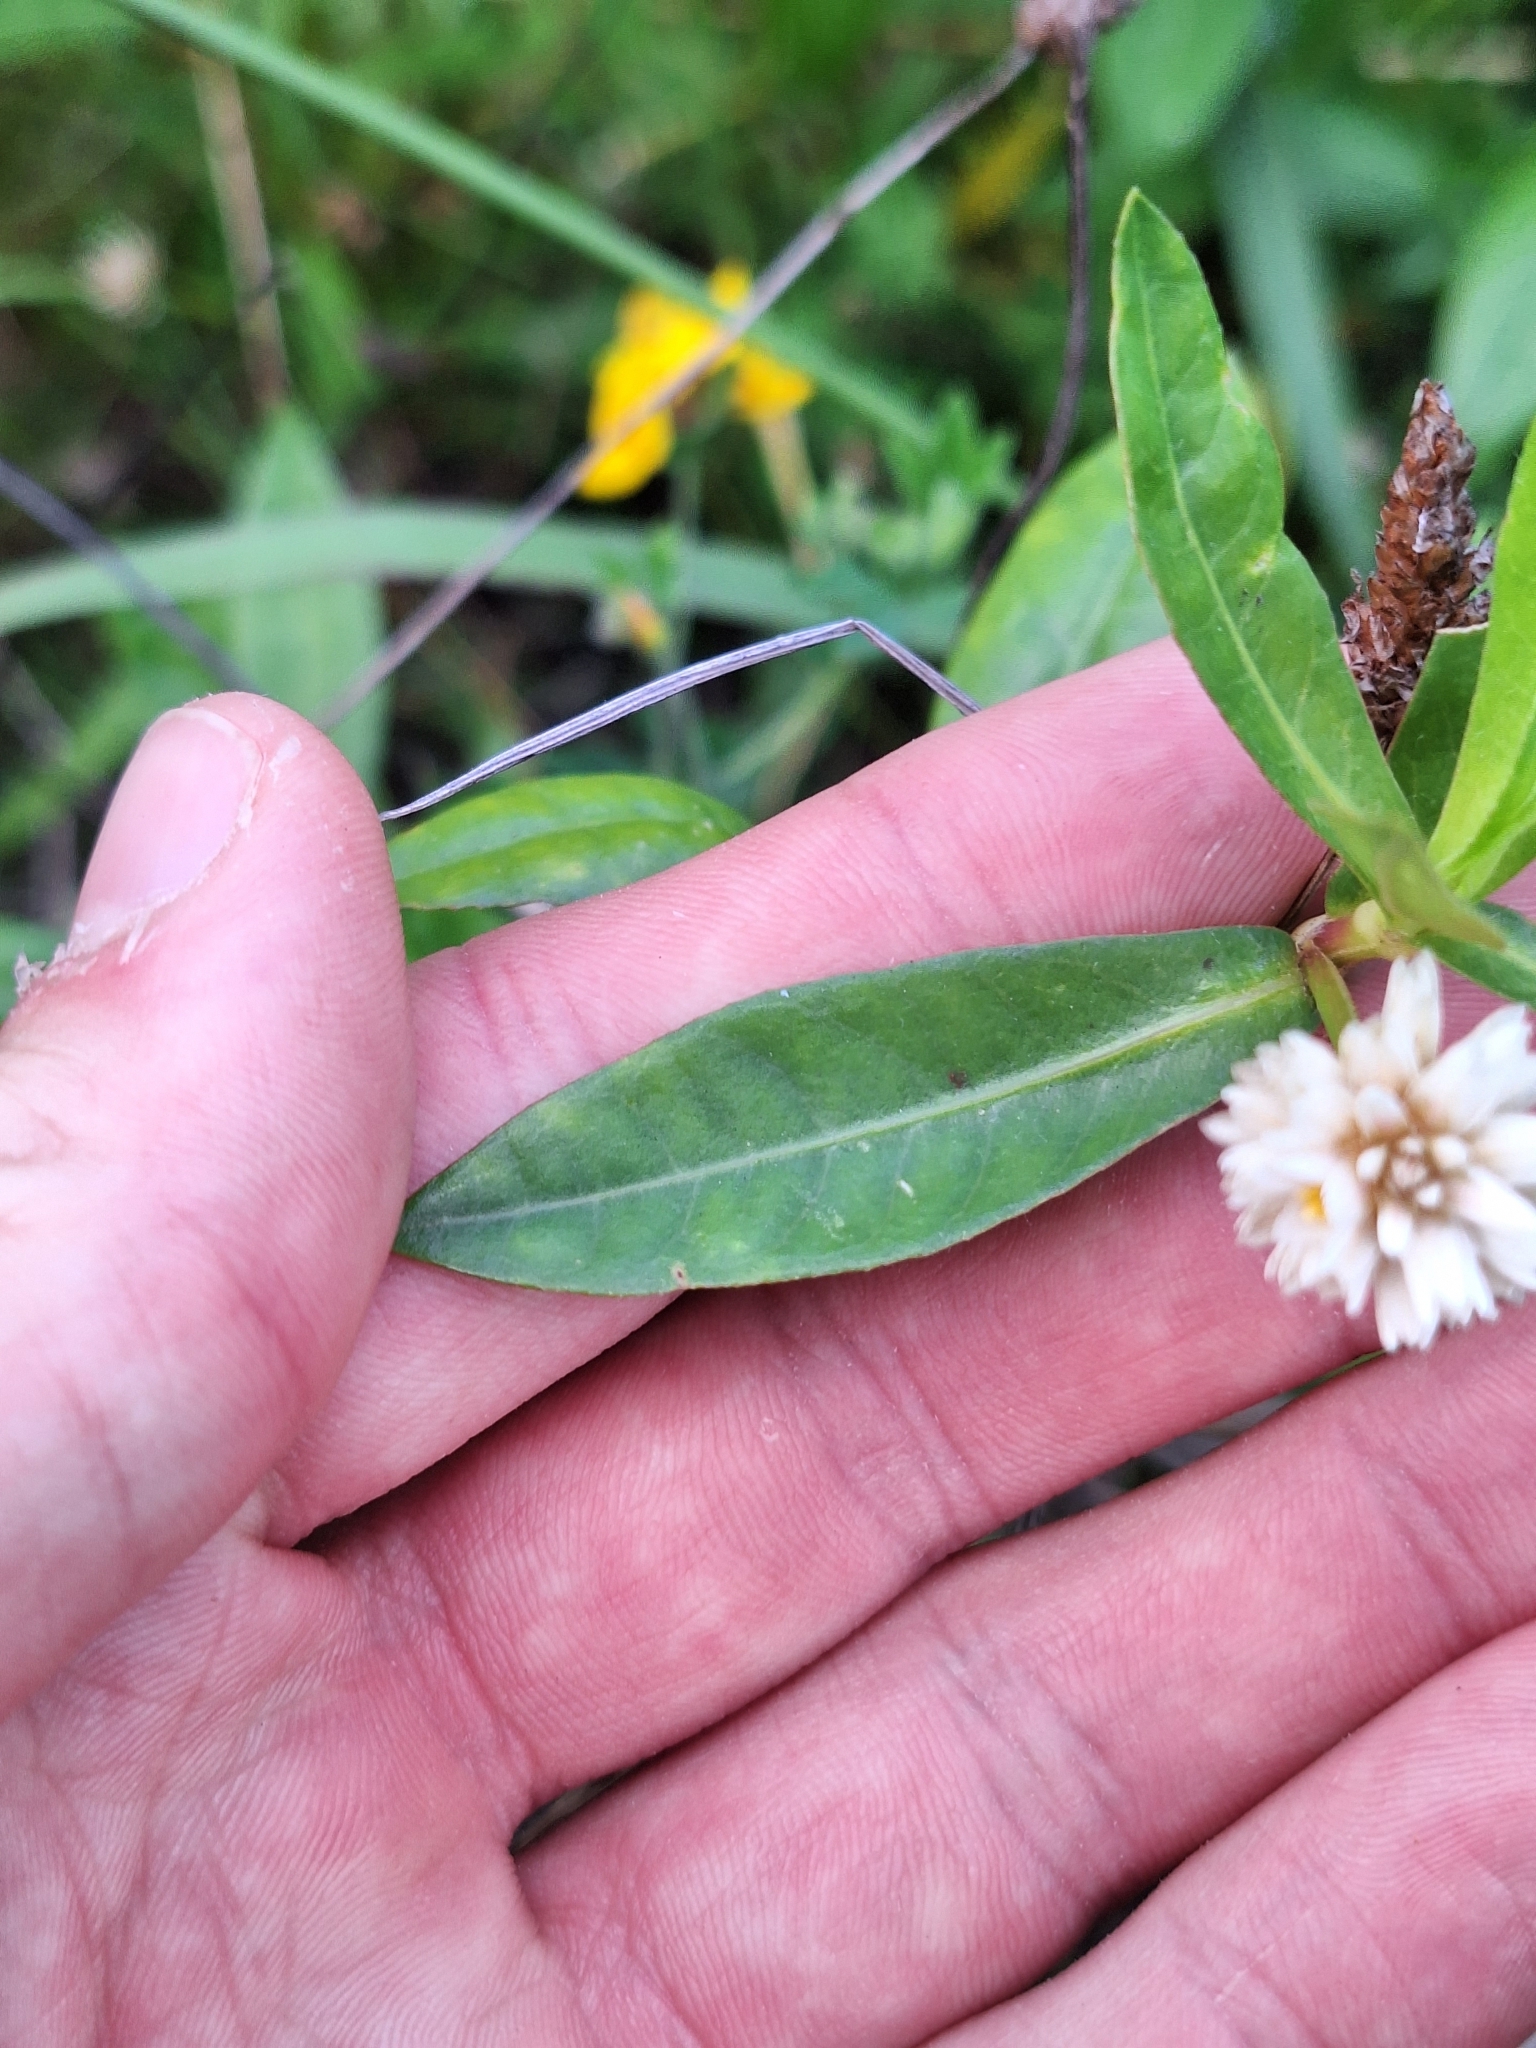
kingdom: Plantae
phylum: Tracheophyta
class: Magnoliopsida
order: Caryophyllales
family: Amaranthaceae
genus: Alternanthera
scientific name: Alternanthera philoxeroides
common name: Alligatorweed
